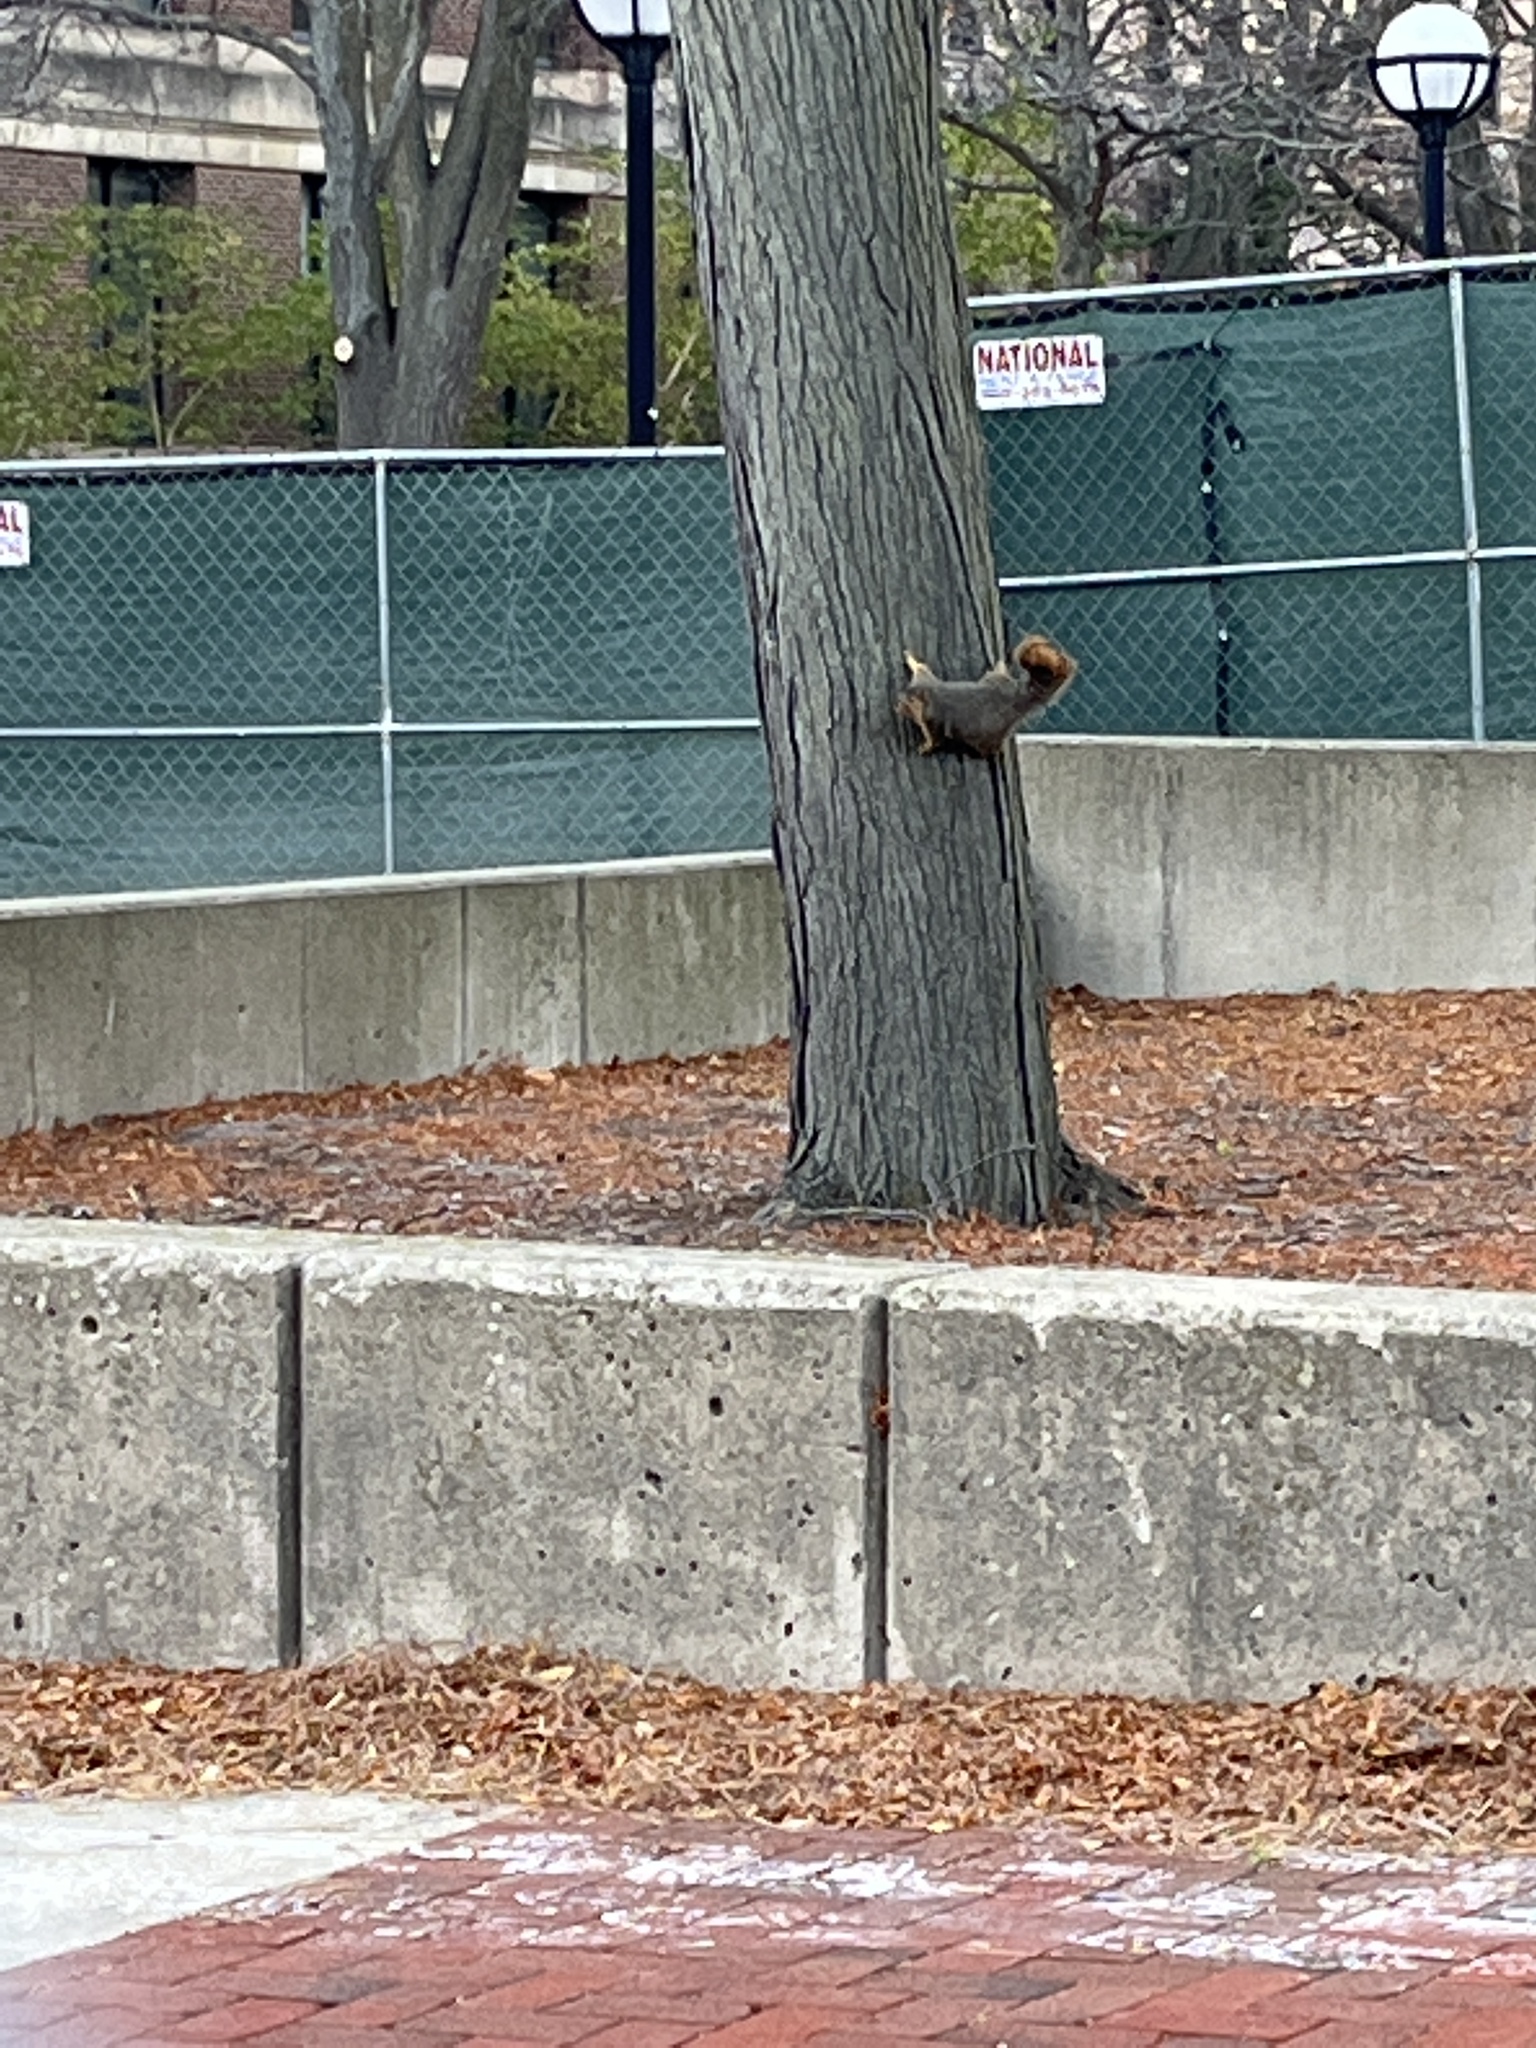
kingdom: Animalia
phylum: Chordata
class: Mammalia
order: Rodentia
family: Sciuridae
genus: Sciurus
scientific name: Sciurus niger
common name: Fox squirrel
